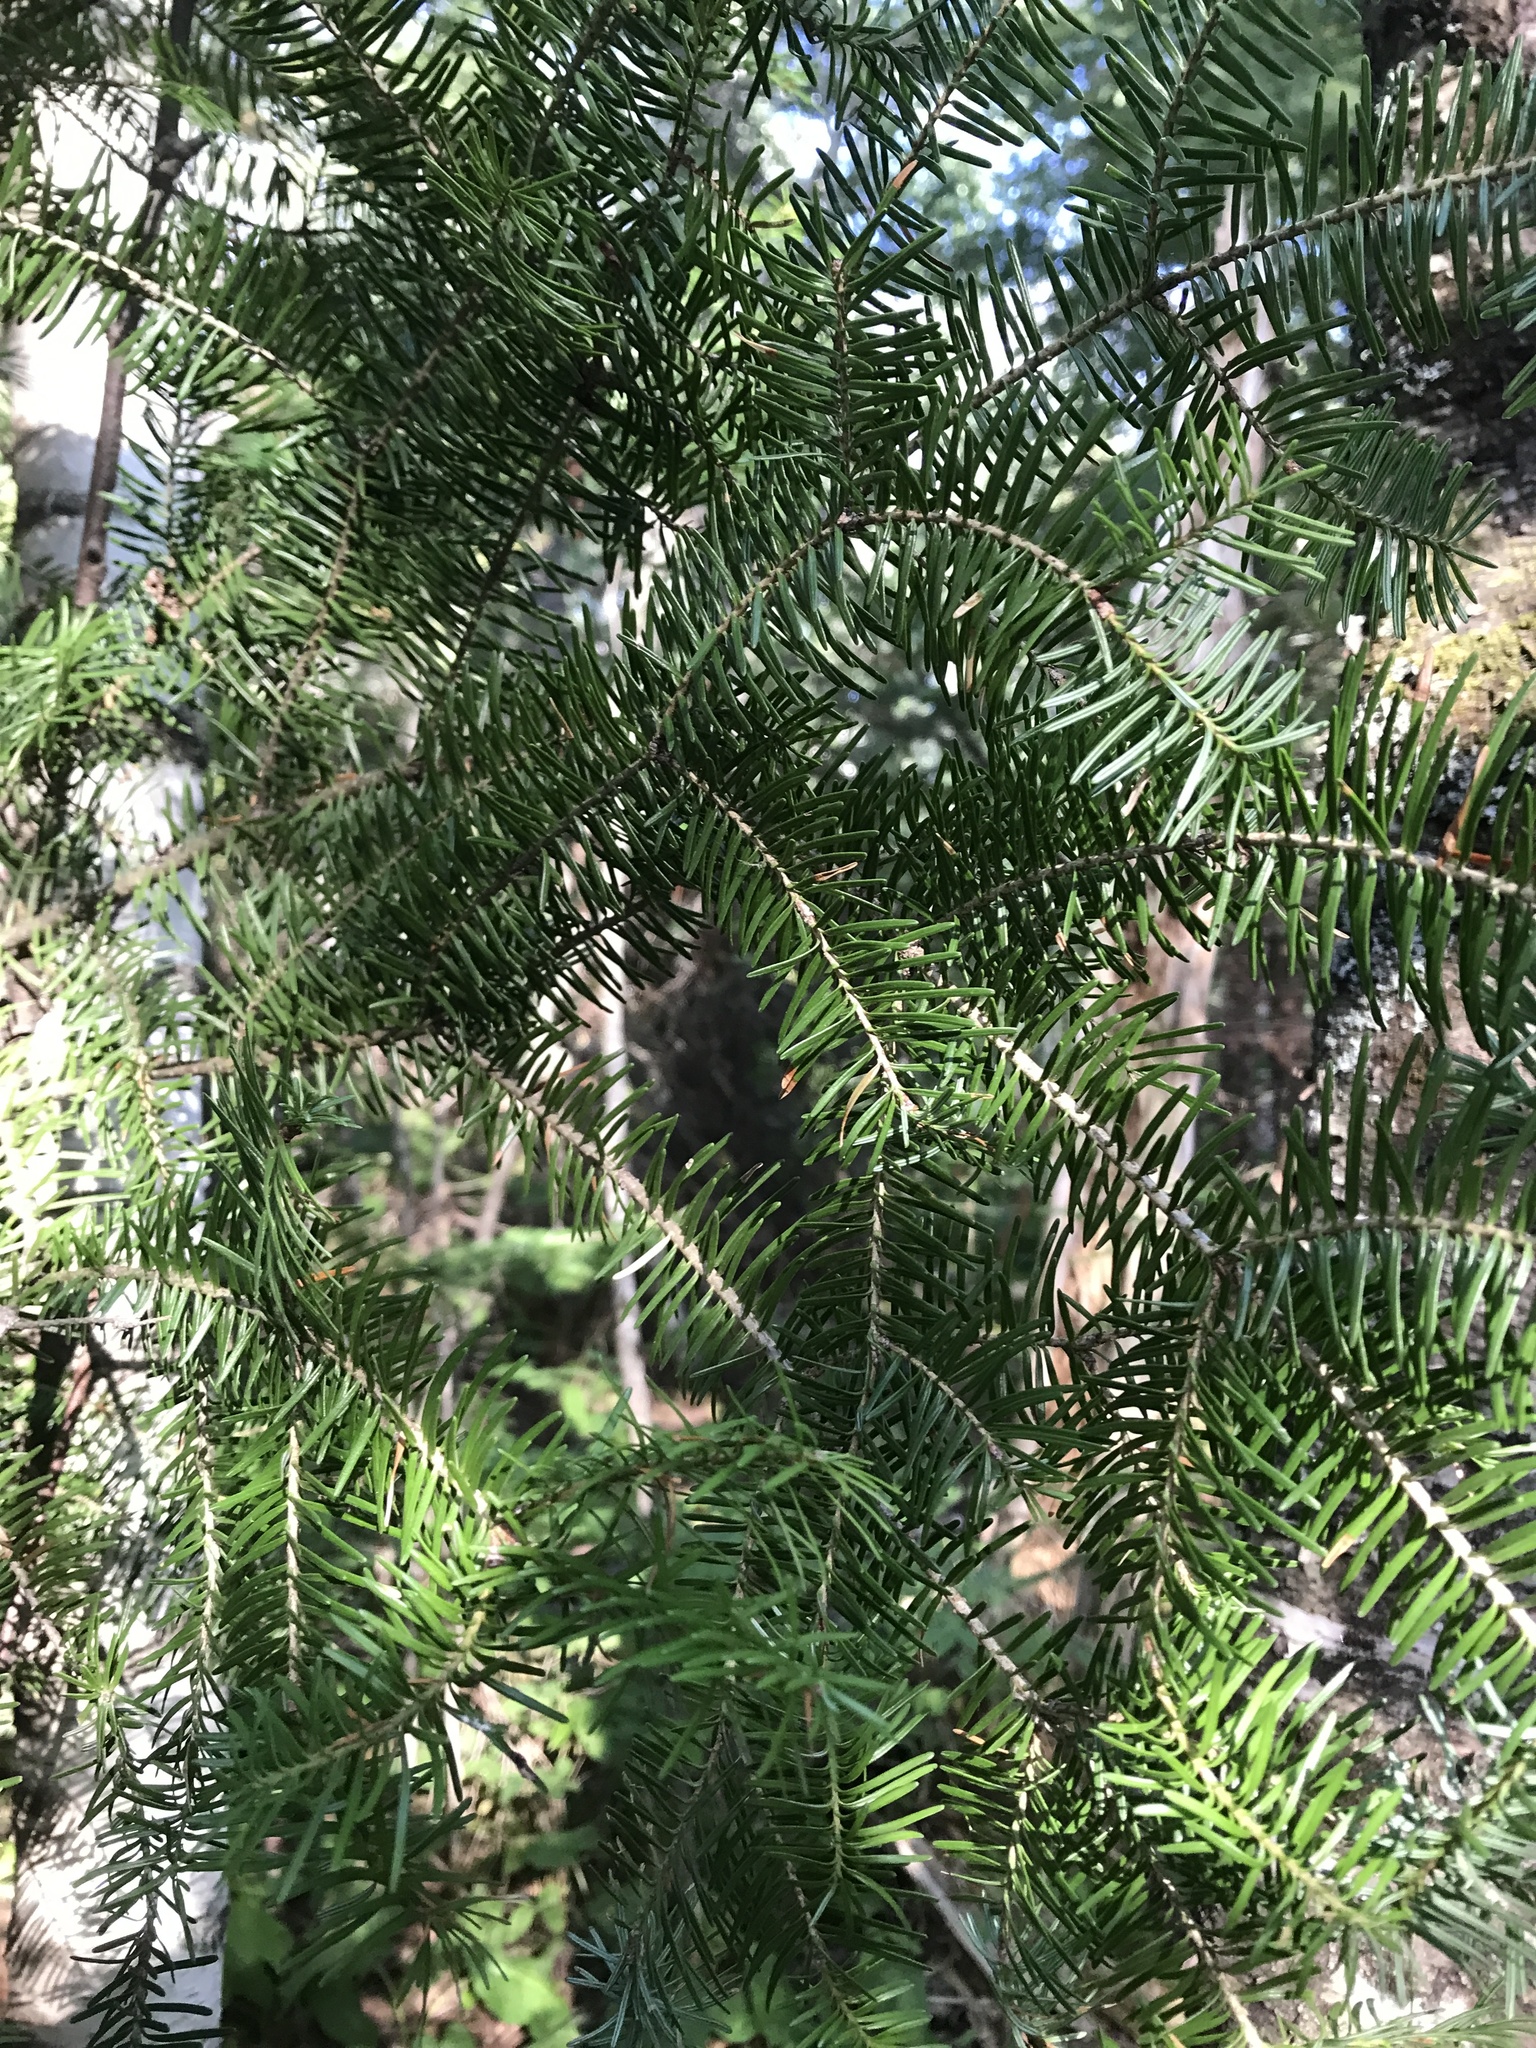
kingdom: Plantae
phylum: Tracheophyta
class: Pinopsida
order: Pinales
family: Pinaceae
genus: Abies
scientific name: Abies balsamea
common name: Balsam fir
